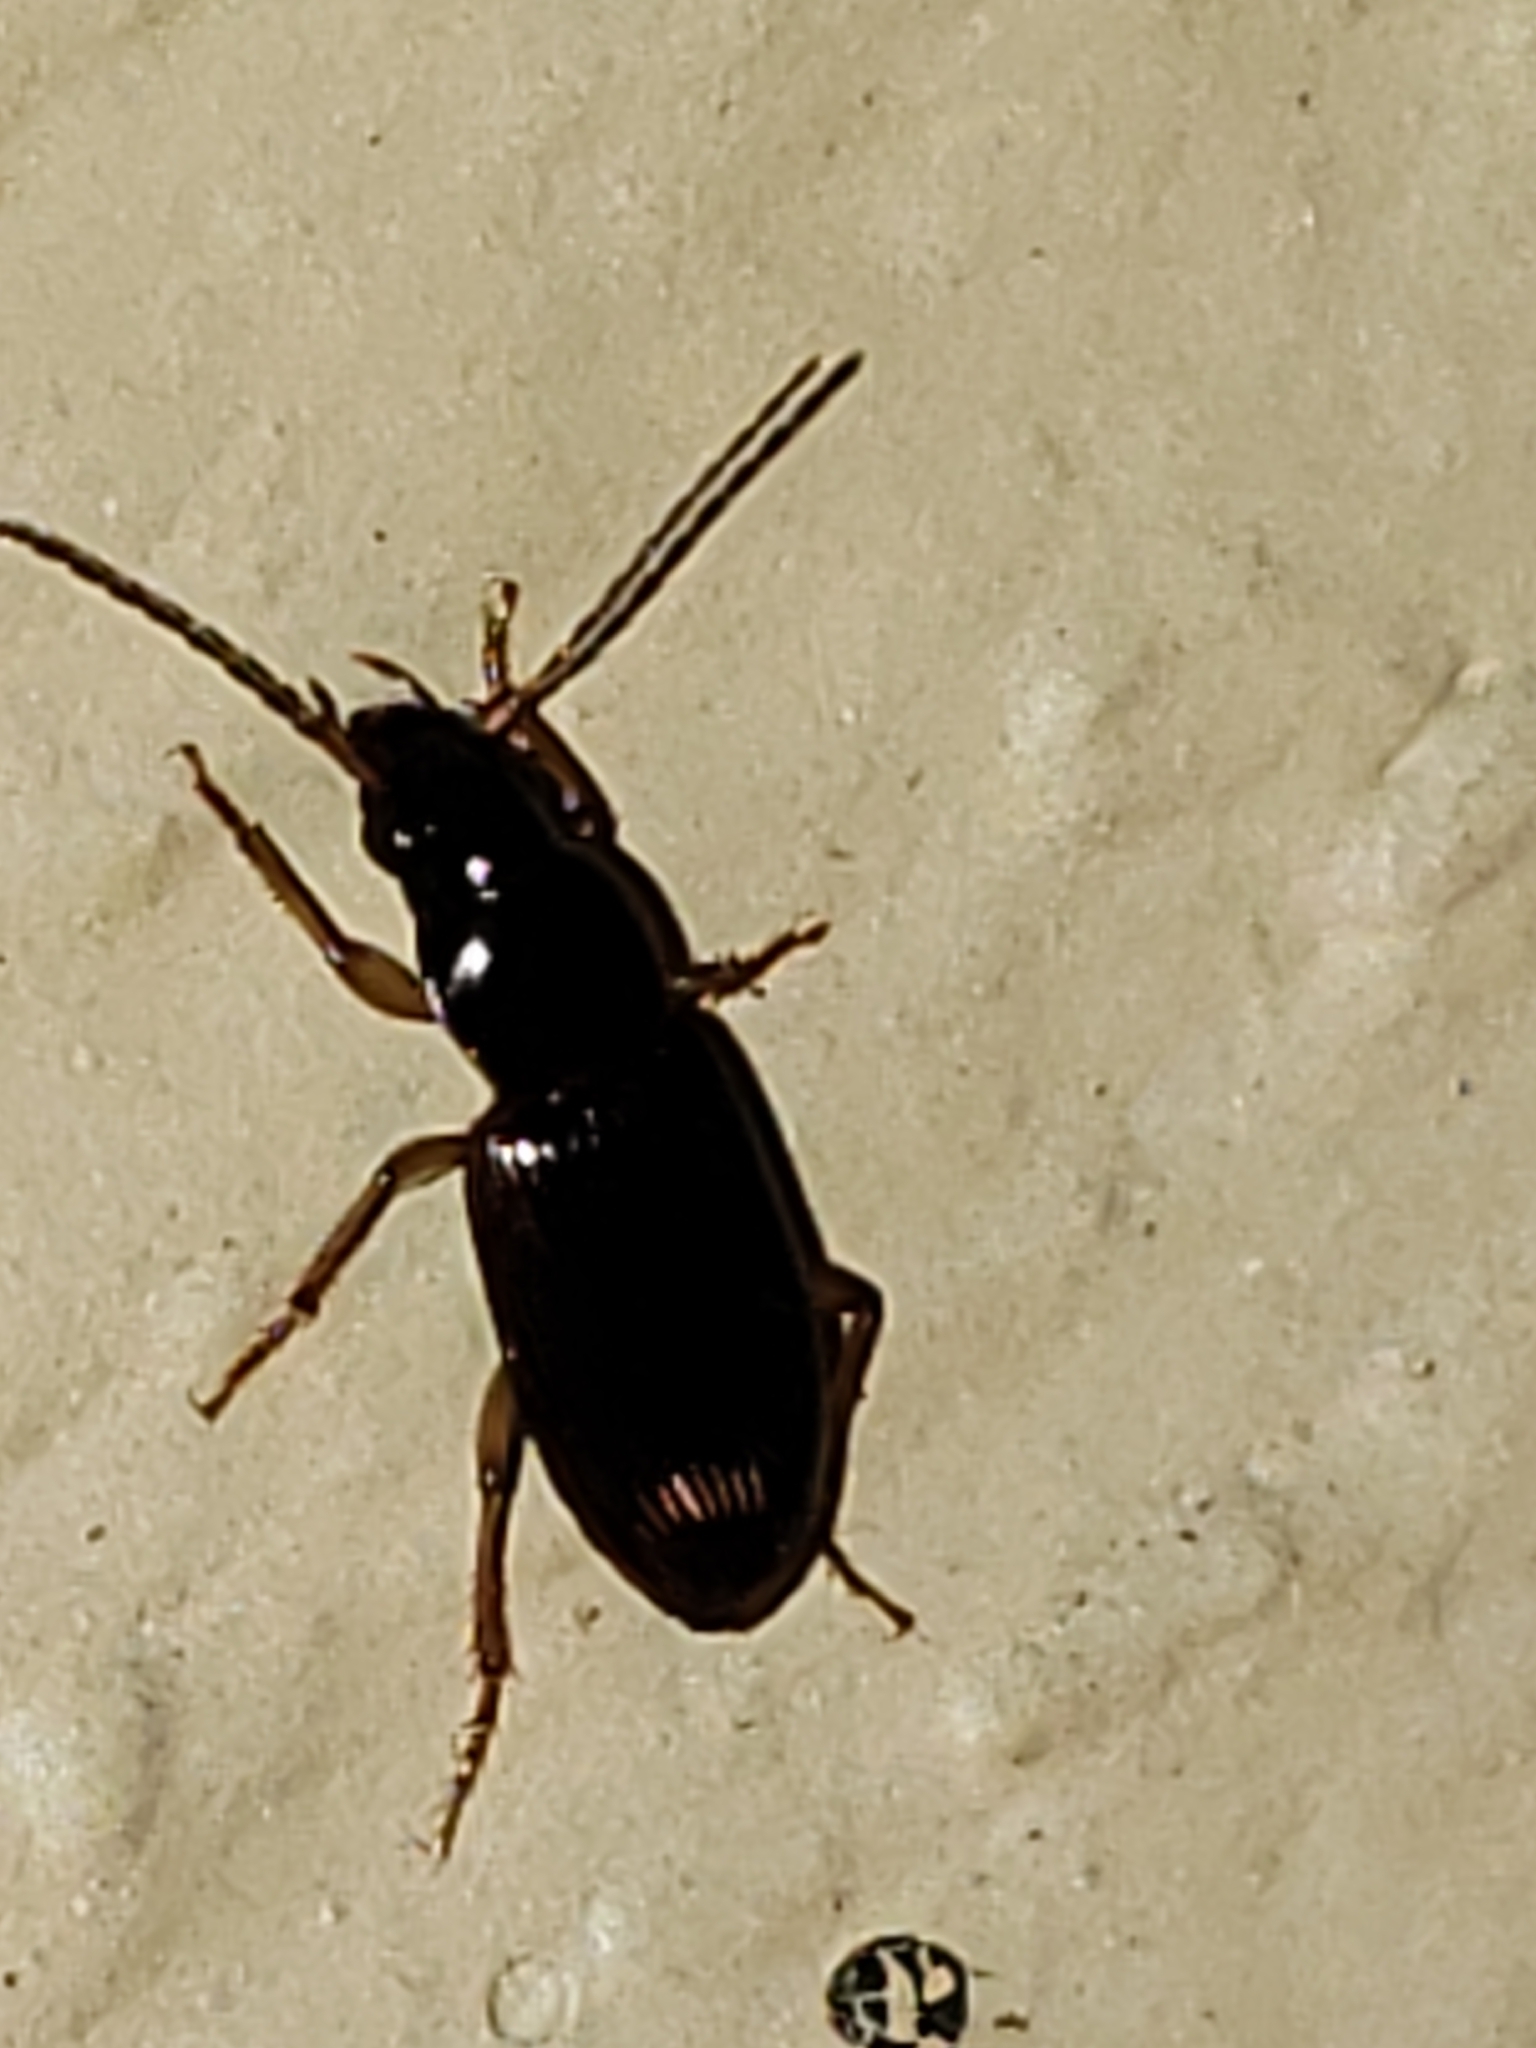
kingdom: Animalia
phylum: Arthropoda
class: Insecta
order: Coleoptera
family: Carabidae
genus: Stenolophus
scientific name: Stenolophus ochropezus
